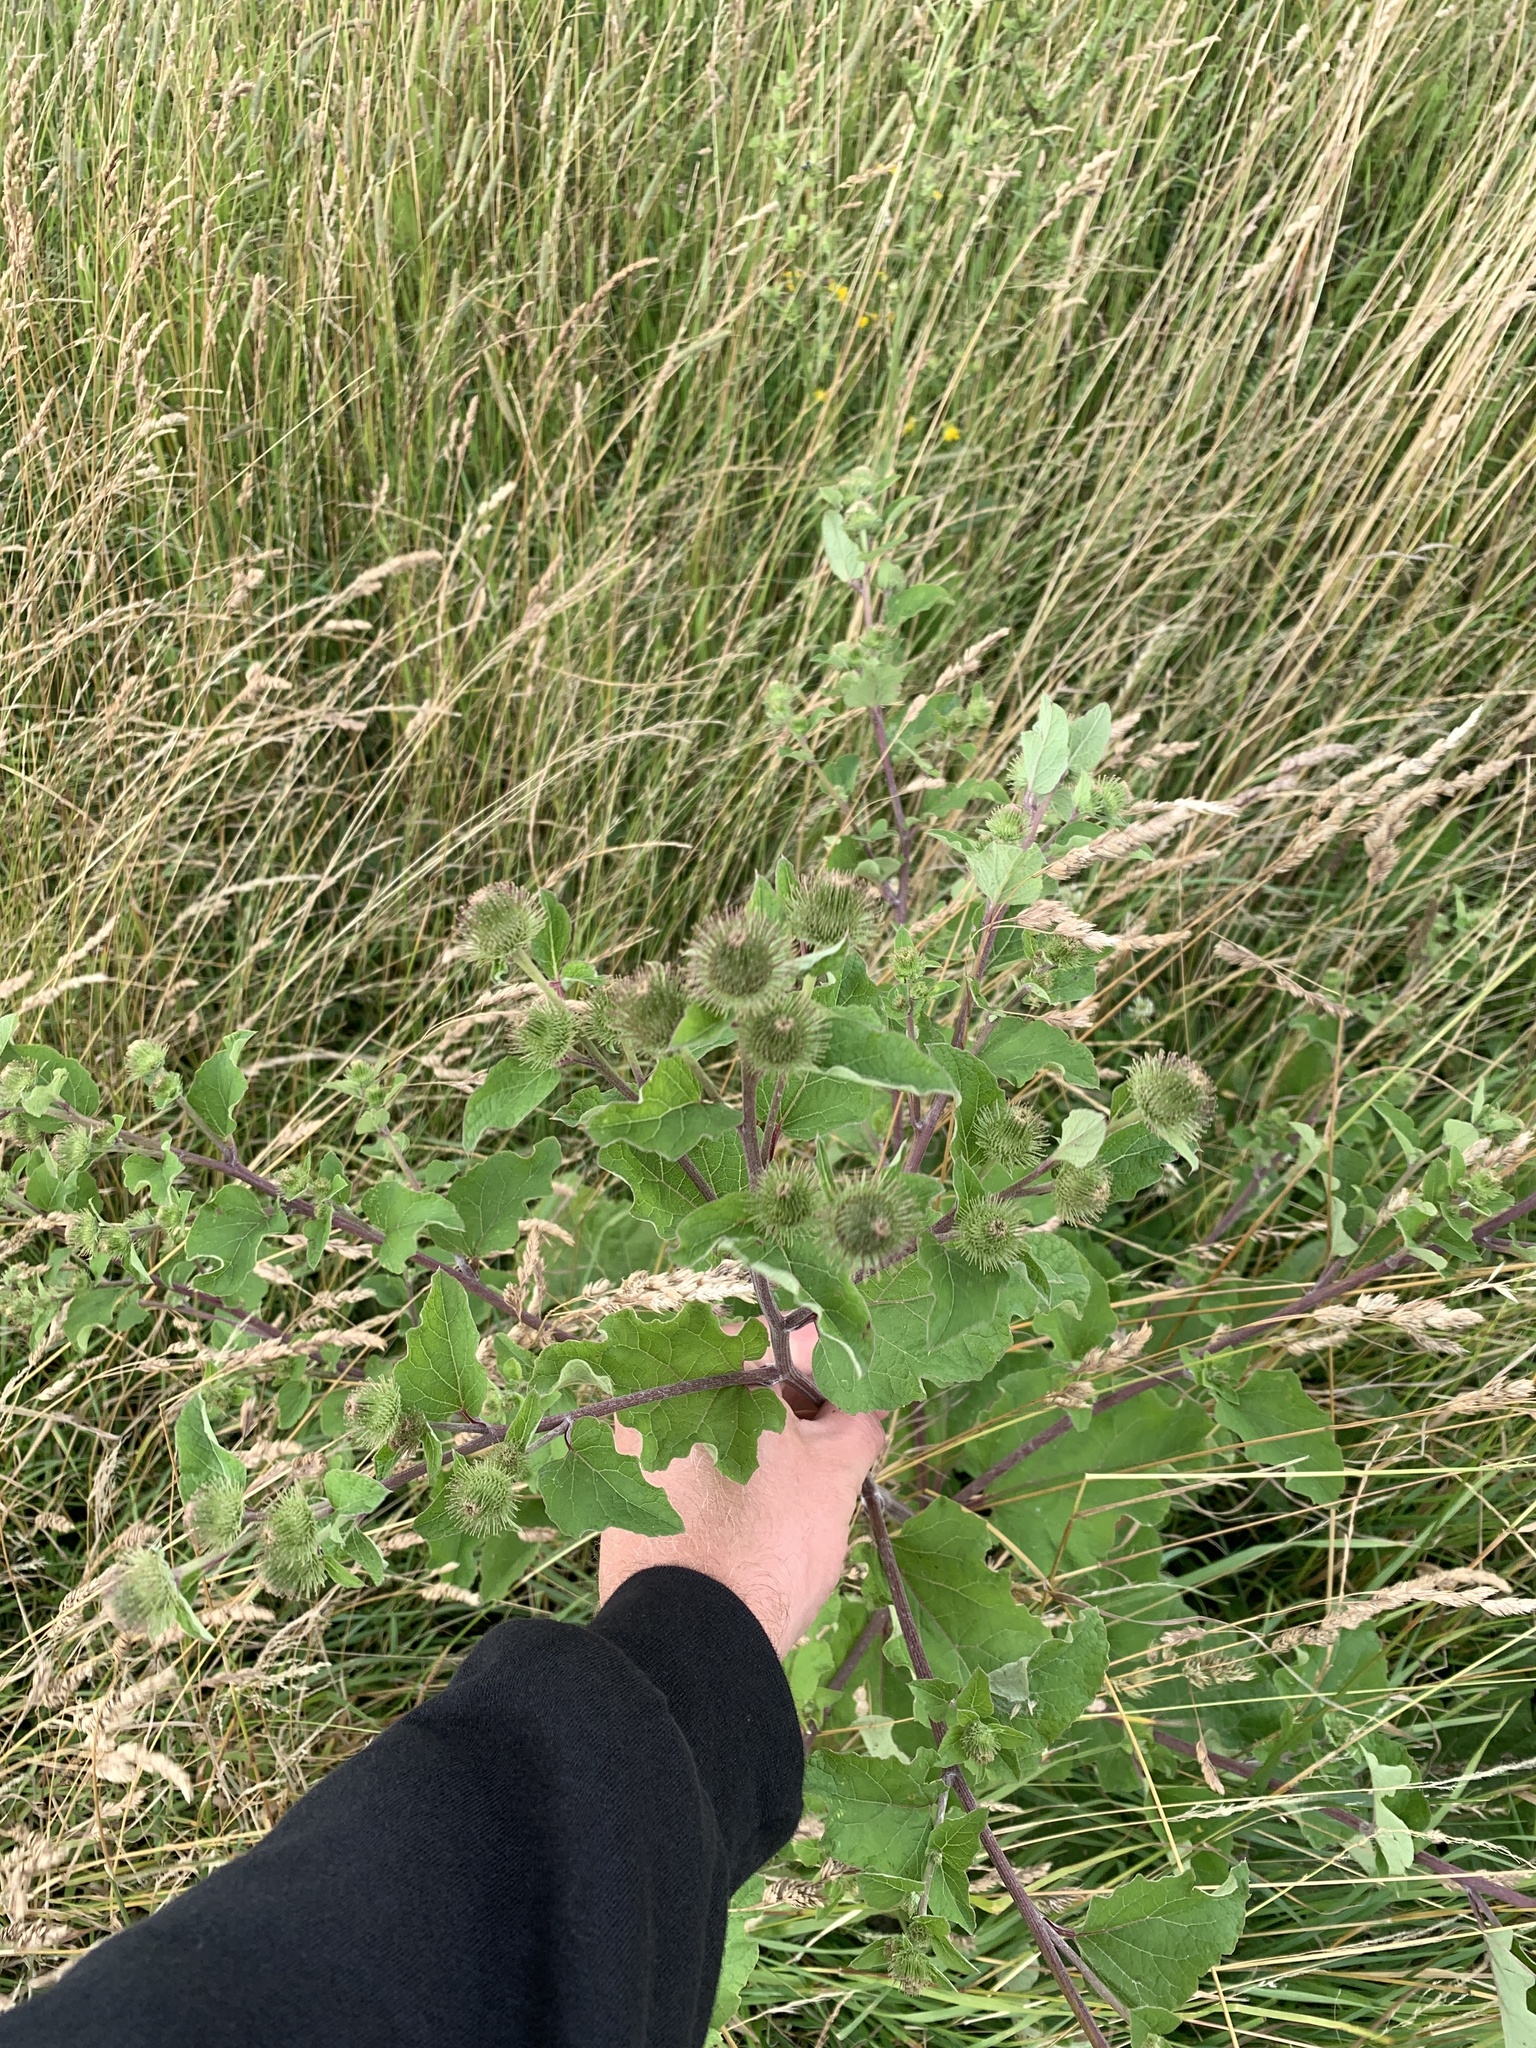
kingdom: Plantae
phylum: Tracheophyta
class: Magnoliopsida
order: Asterales
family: Asteraceae
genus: Arctium
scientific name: Arctium lappa
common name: Greater burdock
